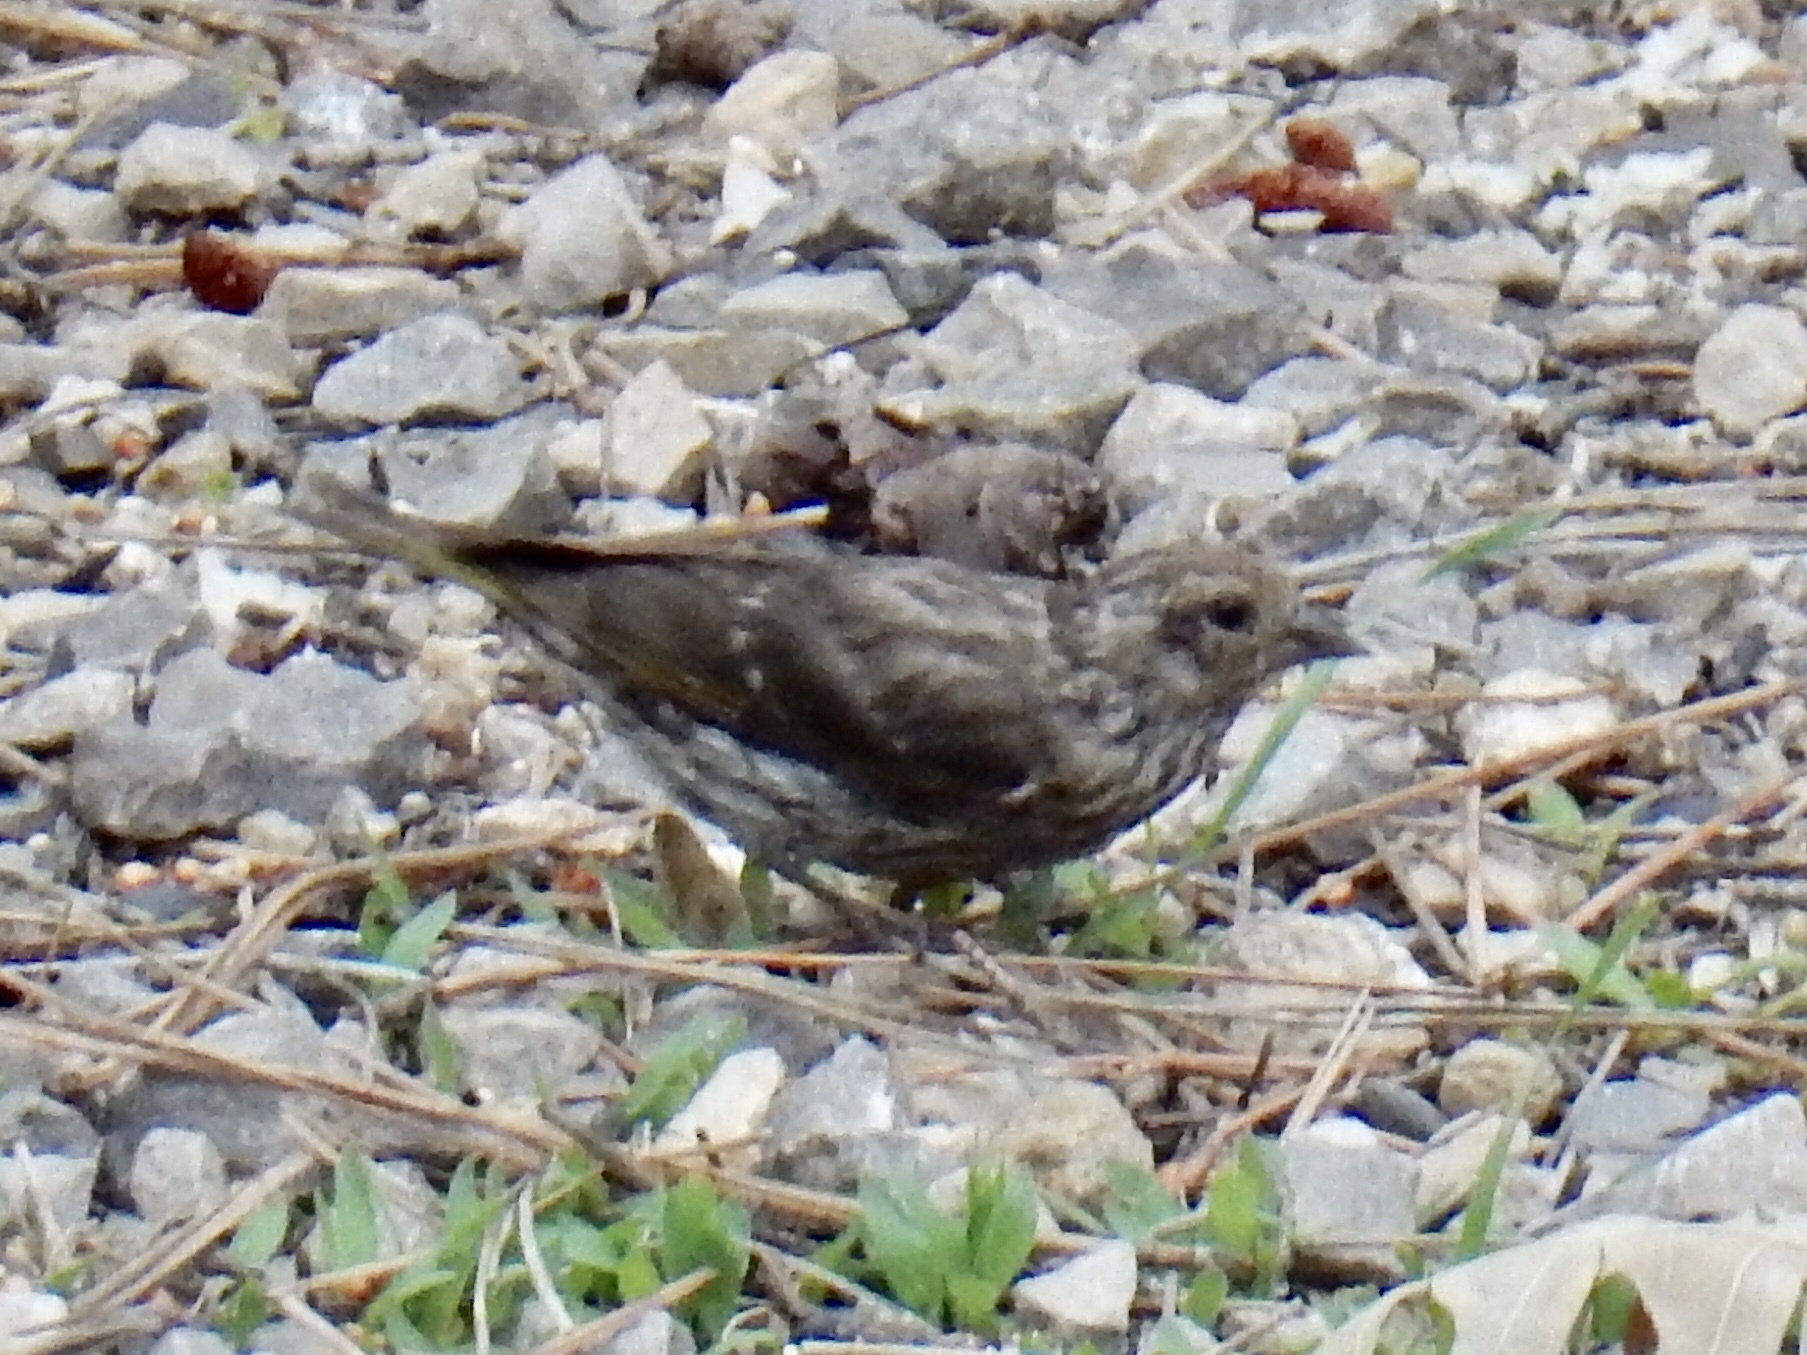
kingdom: Animalia
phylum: Chordata
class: Aves
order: Passeriformes
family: Fringillidae
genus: Spinus
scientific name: Spinus pinus
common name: Pine siskin
